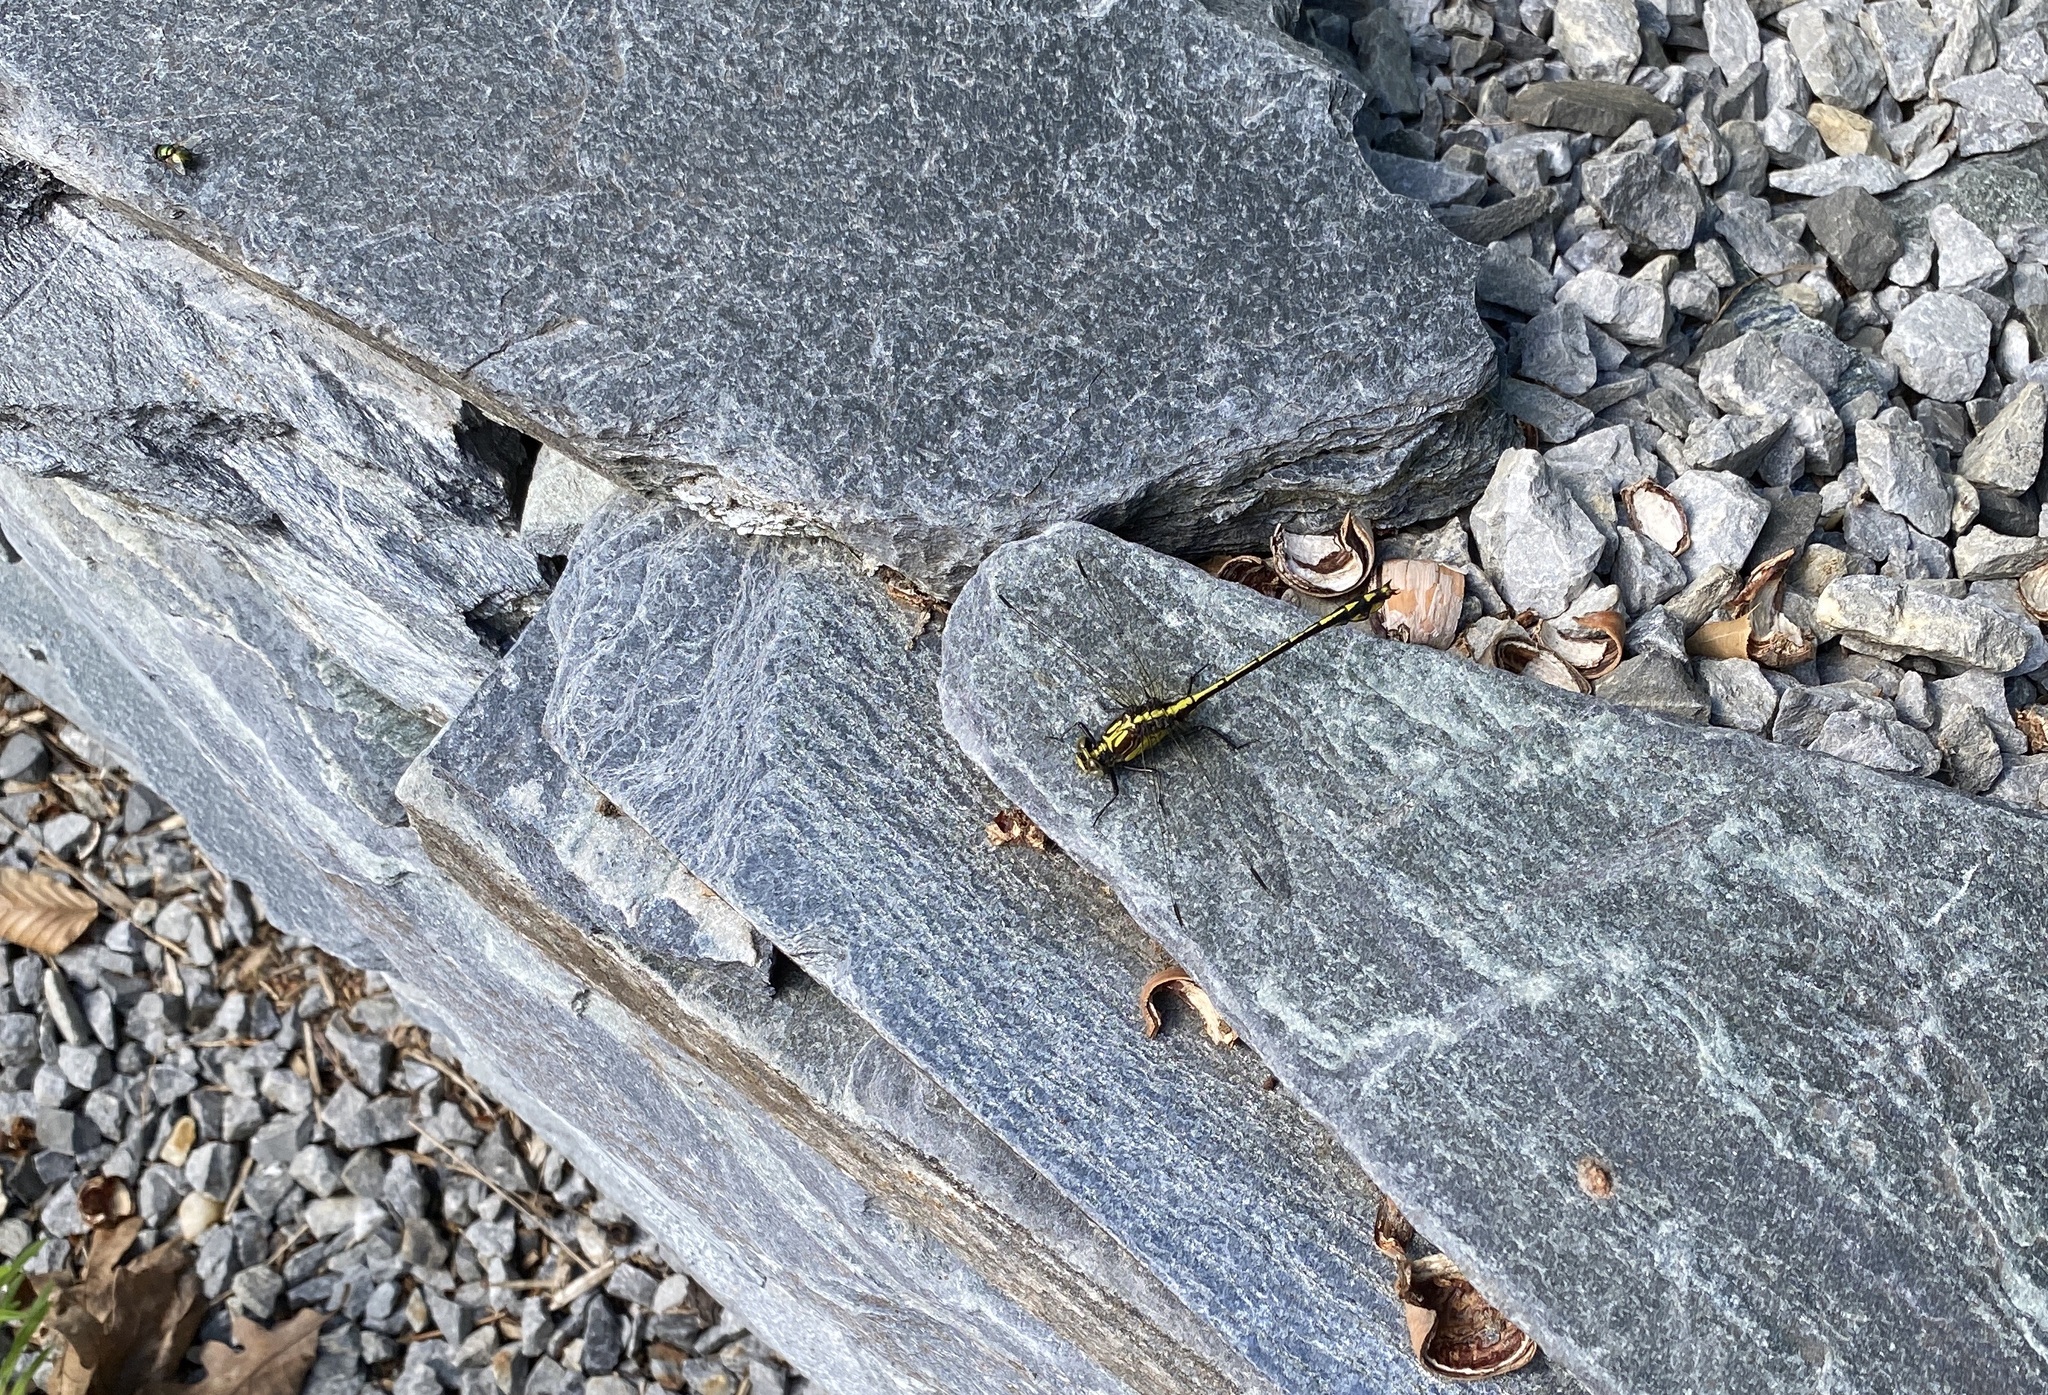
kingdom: Animalia
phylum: Arthropoda
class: Insecta
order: Odonata
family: Gomphidae
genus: Dromogomphus
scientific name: Dromogomphus spinosus
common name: Black-shouldered spinyleg
